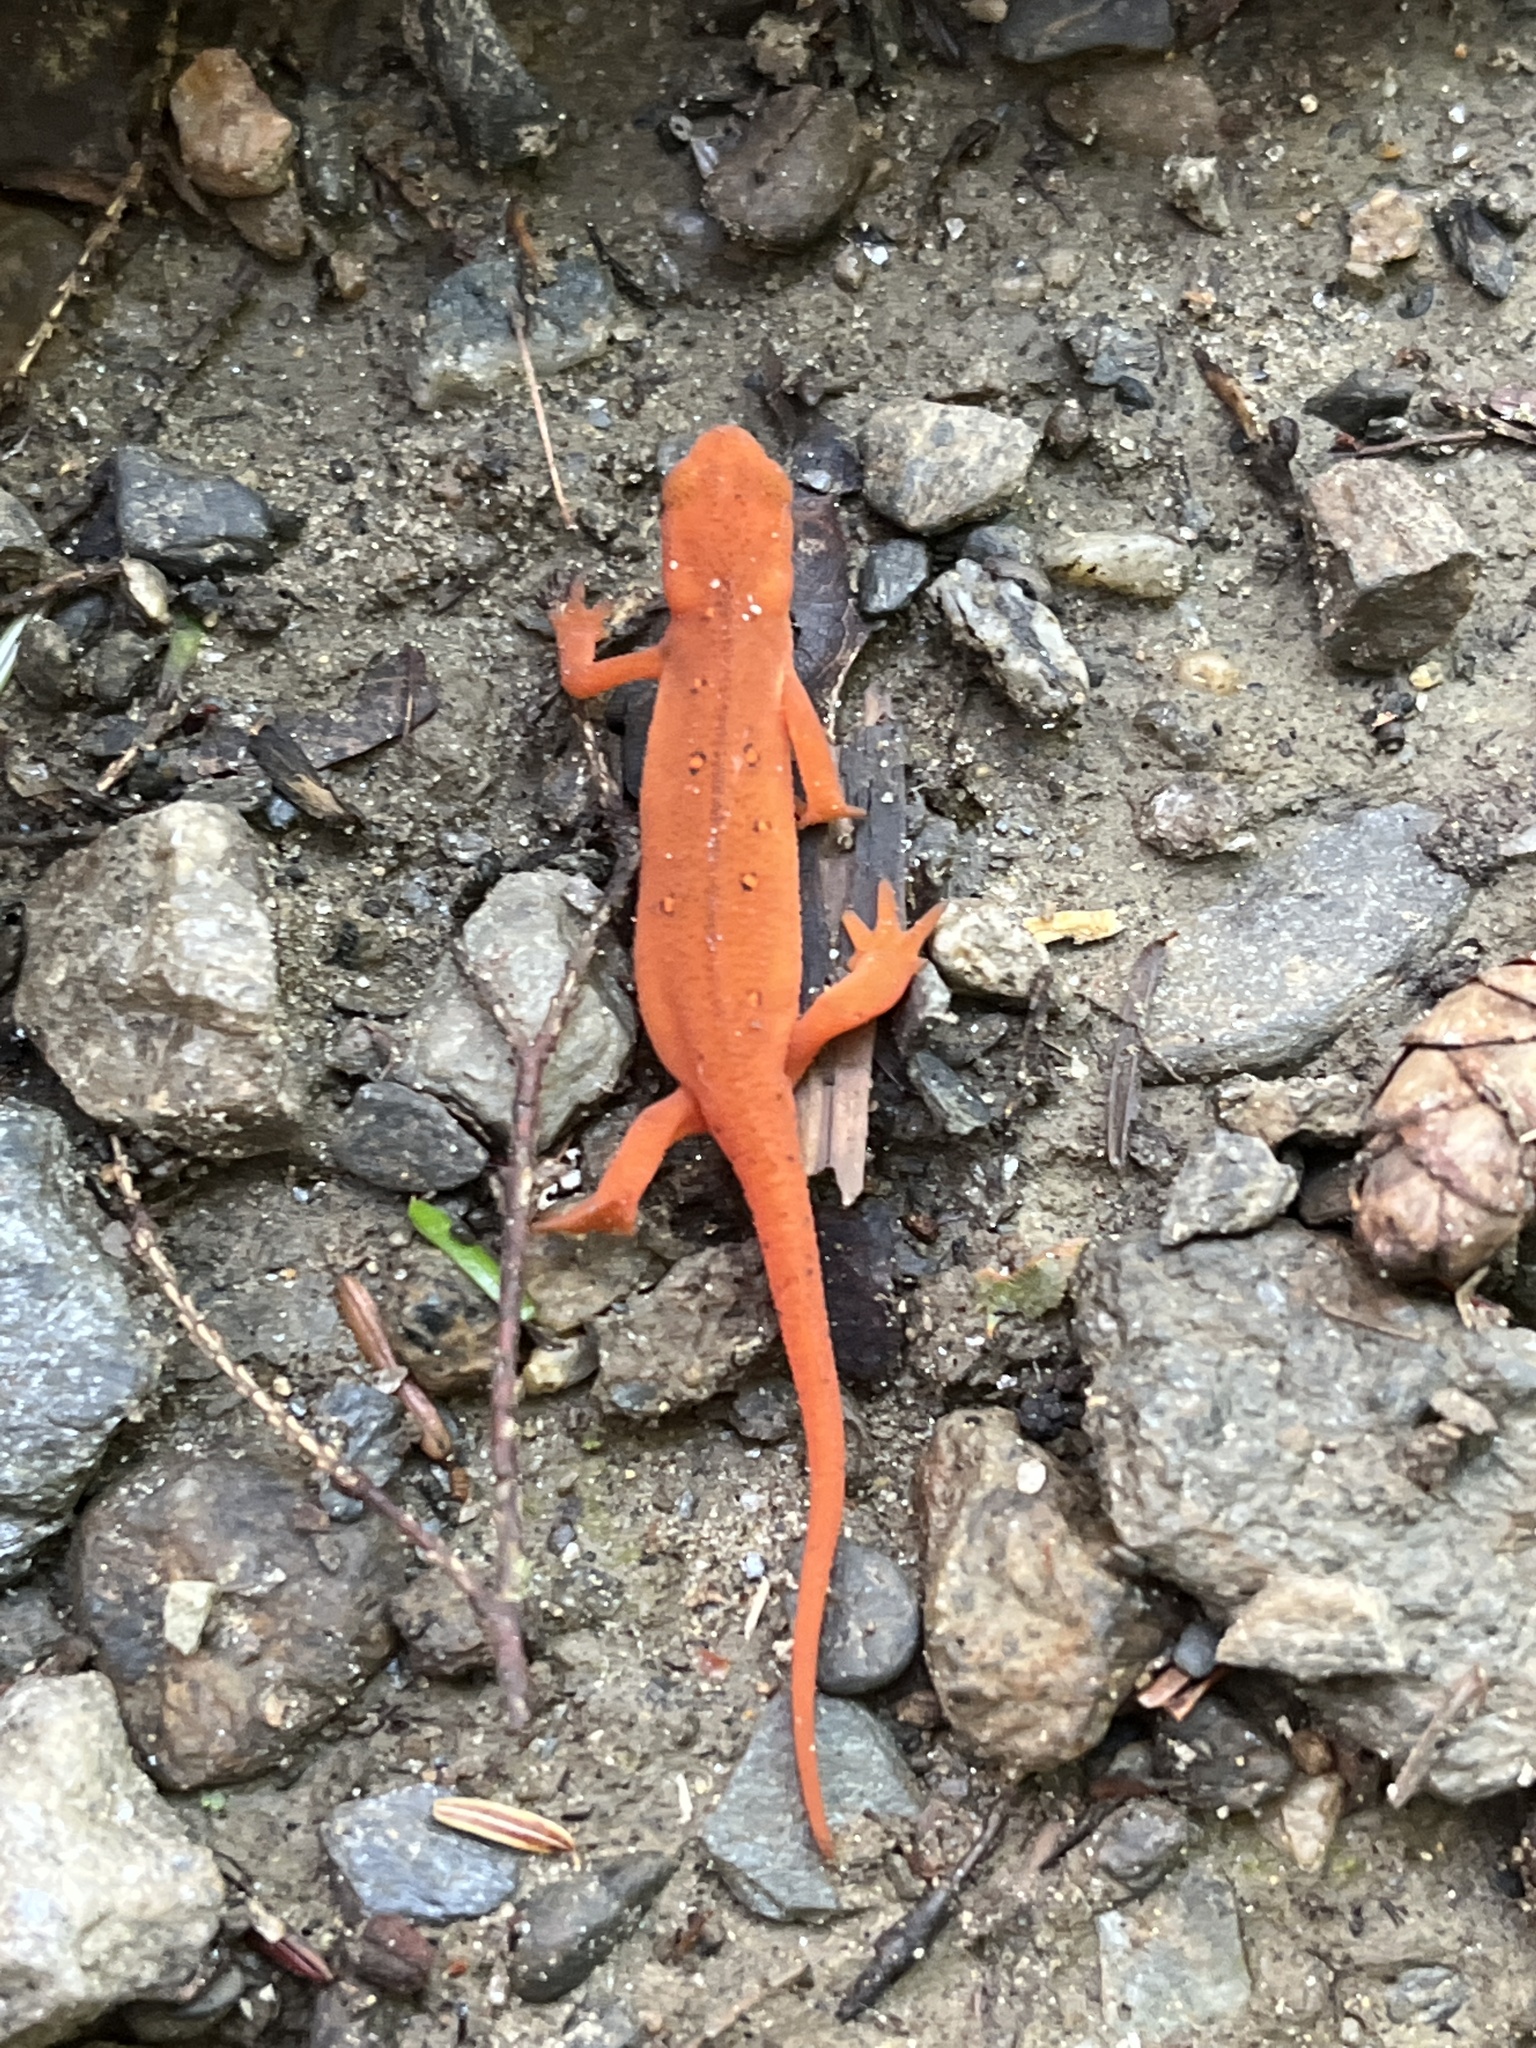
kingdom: Animalia
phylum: Chordata
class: Amphibia
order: Caudata
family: Salamandridae
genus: Notophthalmus
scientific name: Notophthalmus viridescens
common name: Eastern newt
